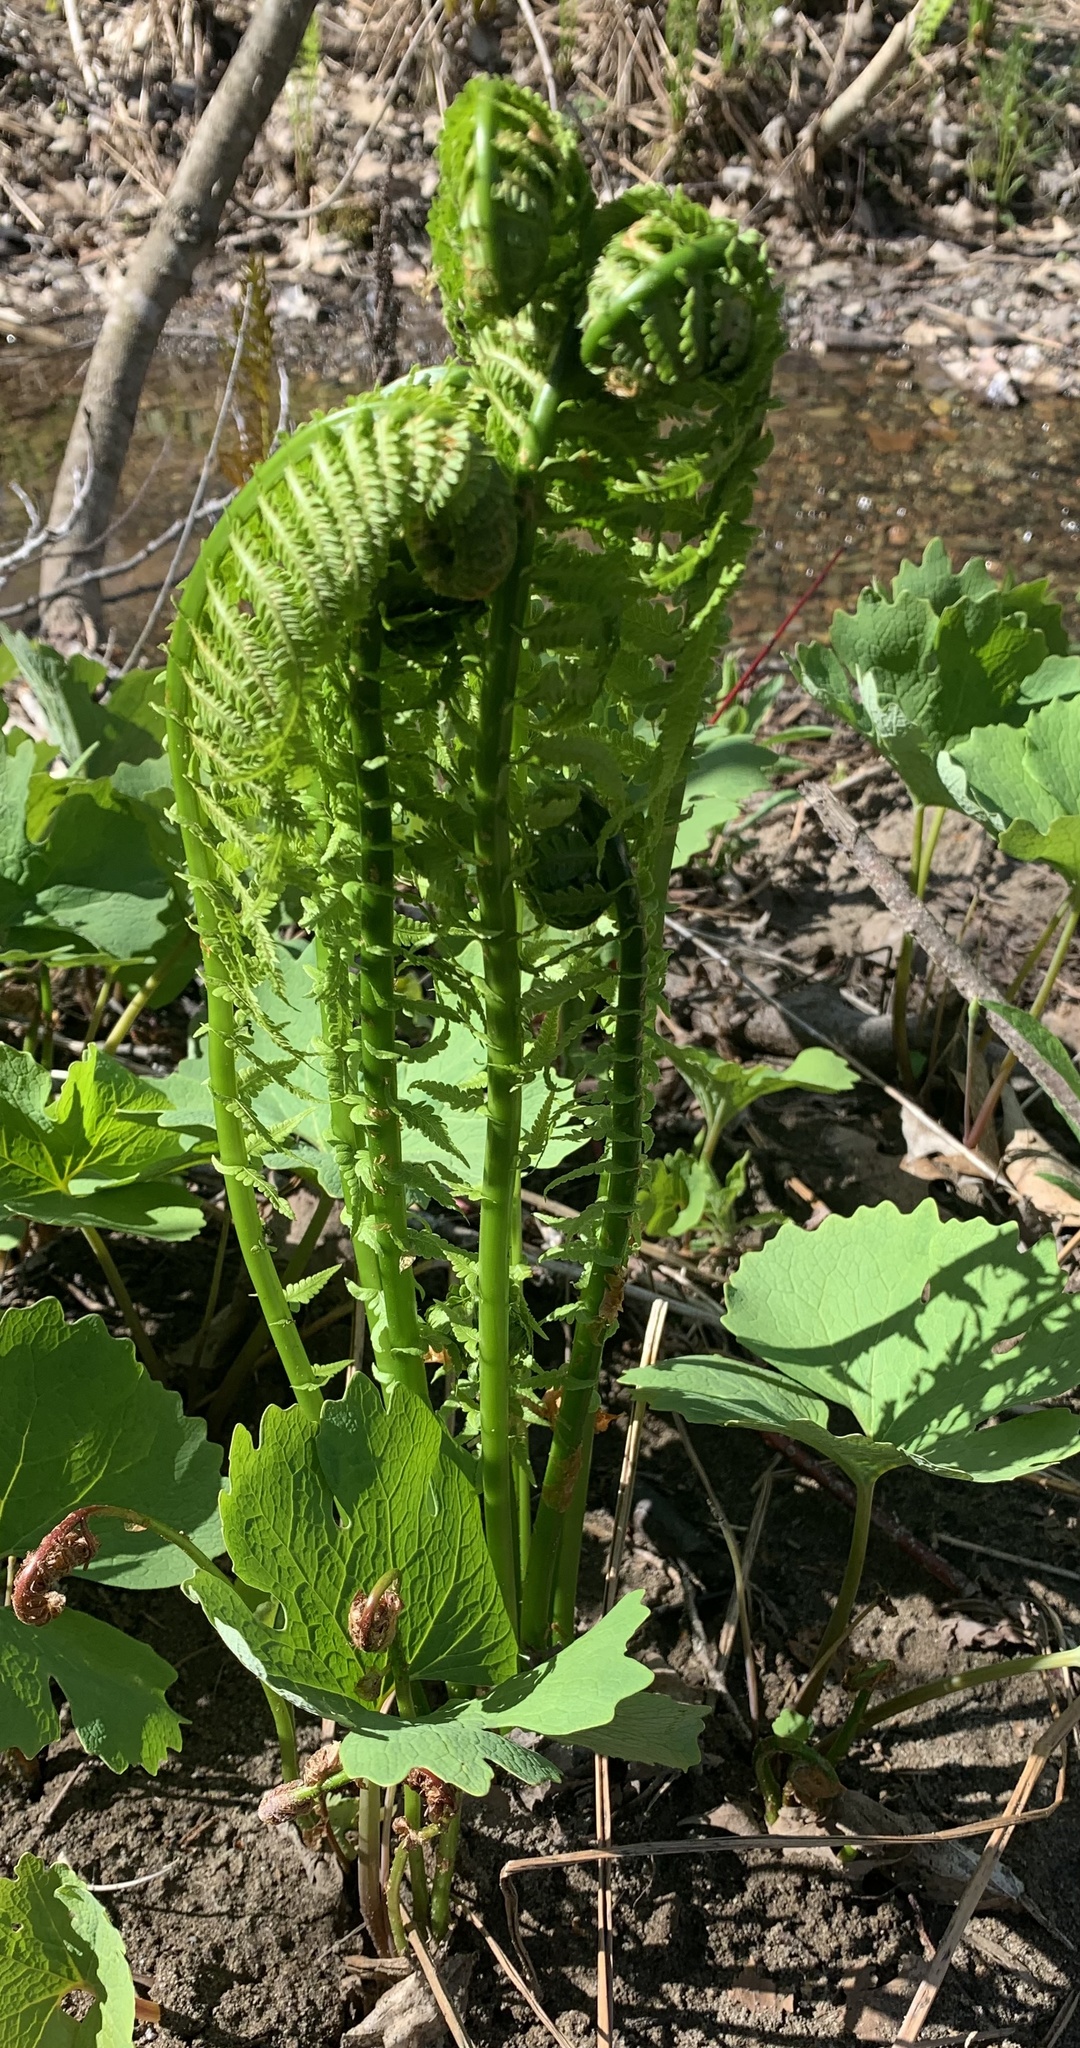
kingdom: Plantae
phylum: Tracheophyta
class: Polypodiopsida
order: Polypodiales
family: Onocleaceae
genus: Matteuccia
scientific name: Matteuccia struthiopteris
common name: Ostrich fern
